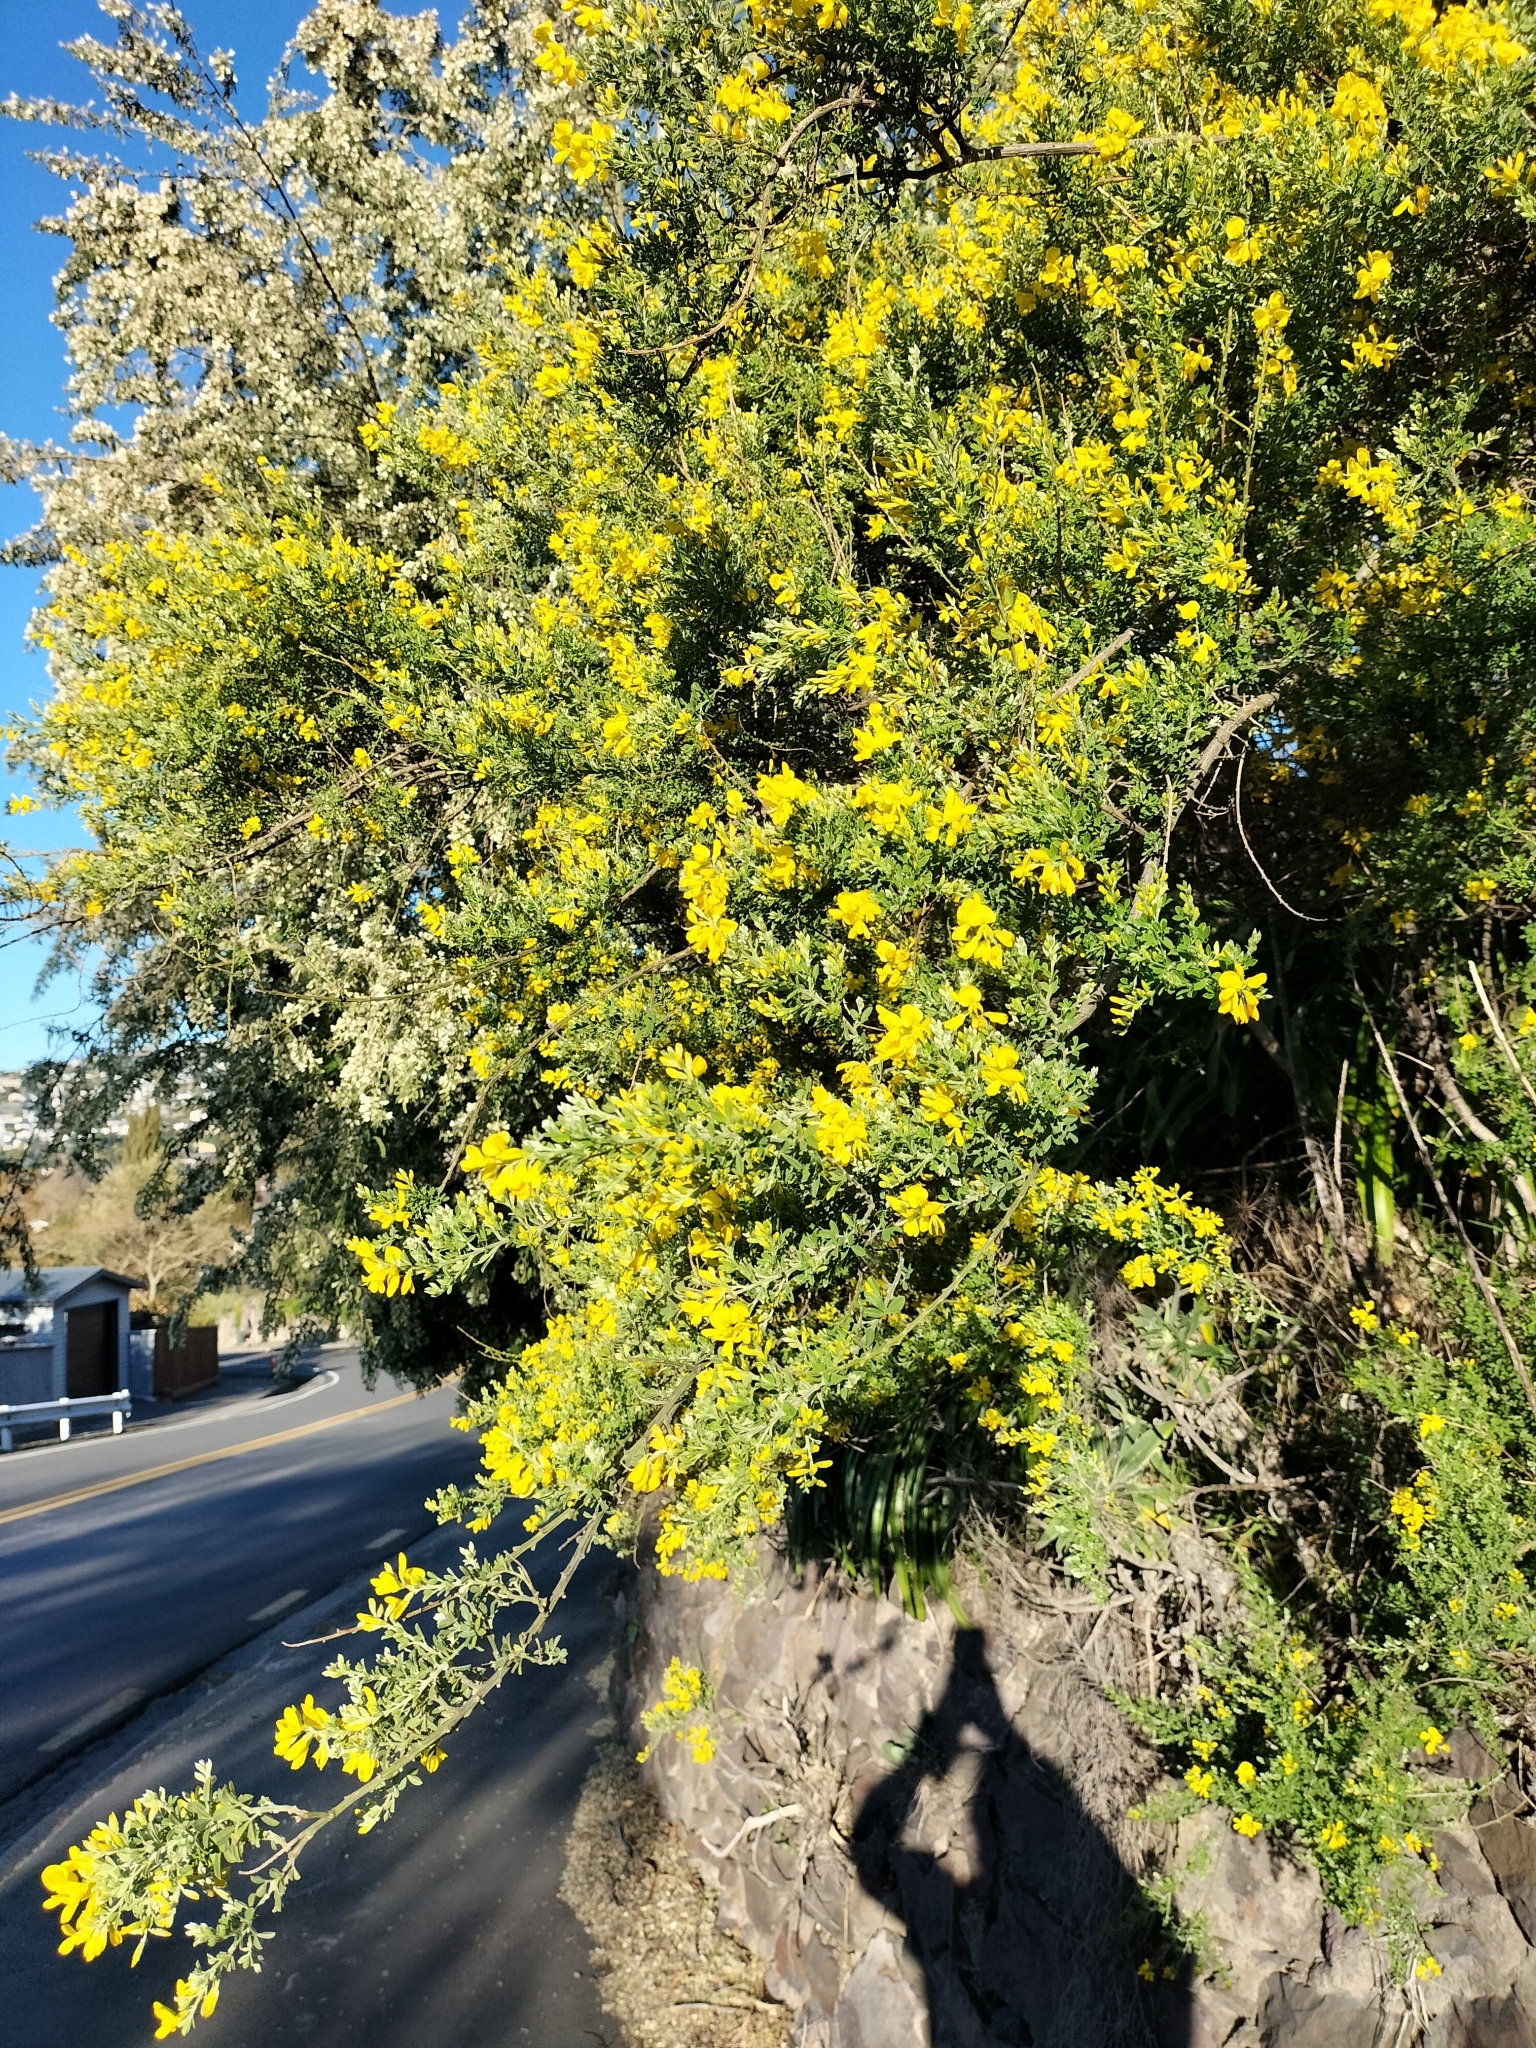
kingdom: Plantae
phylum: Tracheophyta
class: Magnoliopsida
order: Fabales
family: Fabaceae
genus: Genista
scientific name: Genista monspessulana
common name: Montpellier broom
